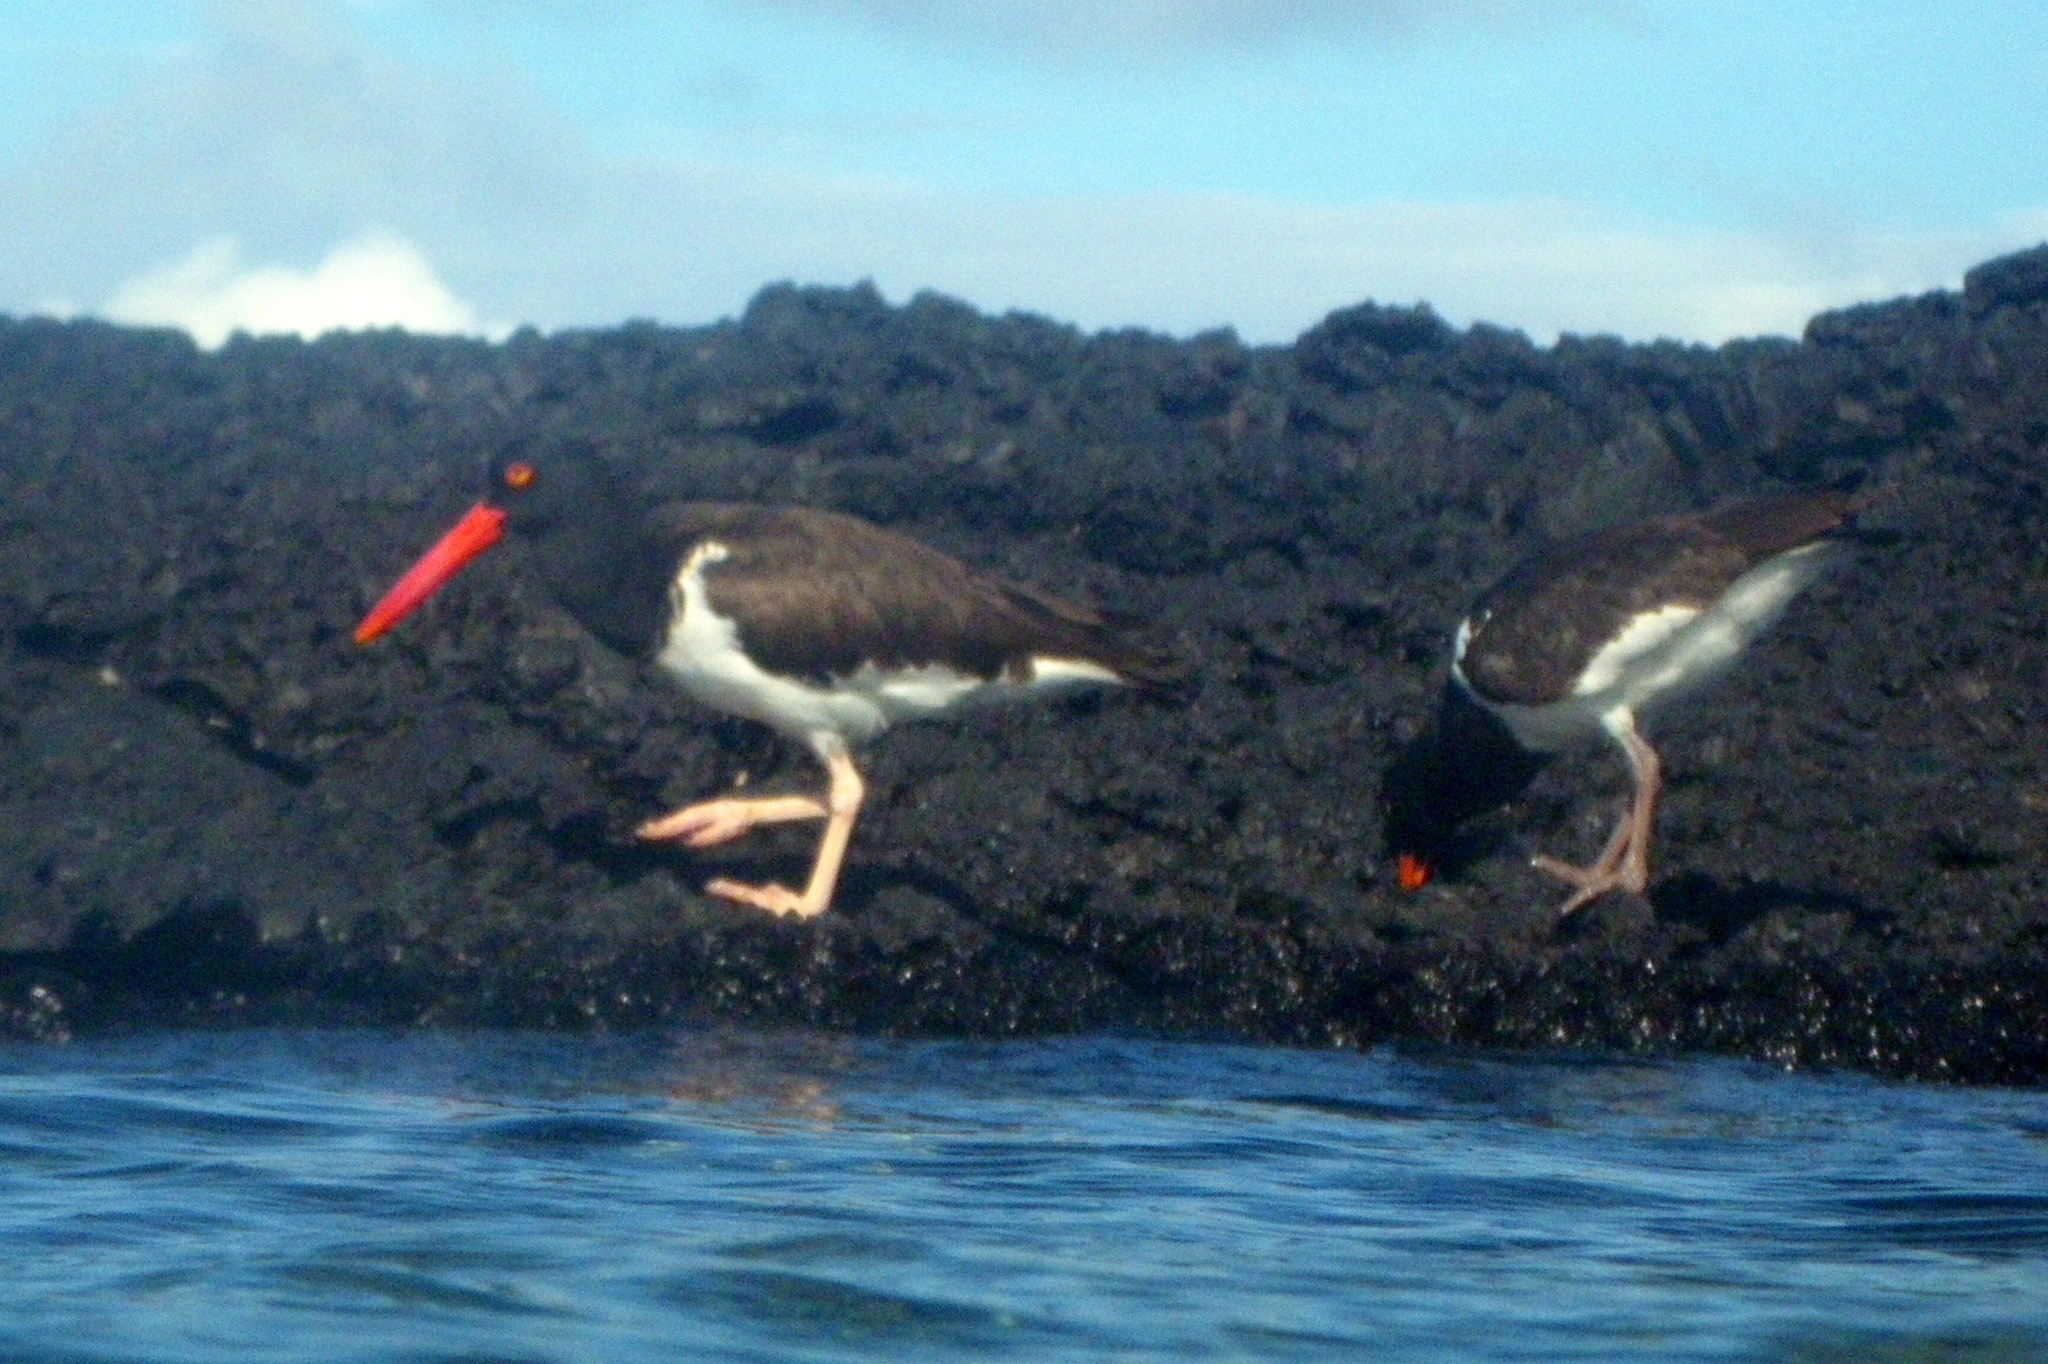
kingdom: Animalia
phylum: Chordata
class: Aves
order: Charadriiformes
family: Haematopodidae
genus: Haematopus
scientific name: Haematopus palliatus
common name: American oystercatcher
